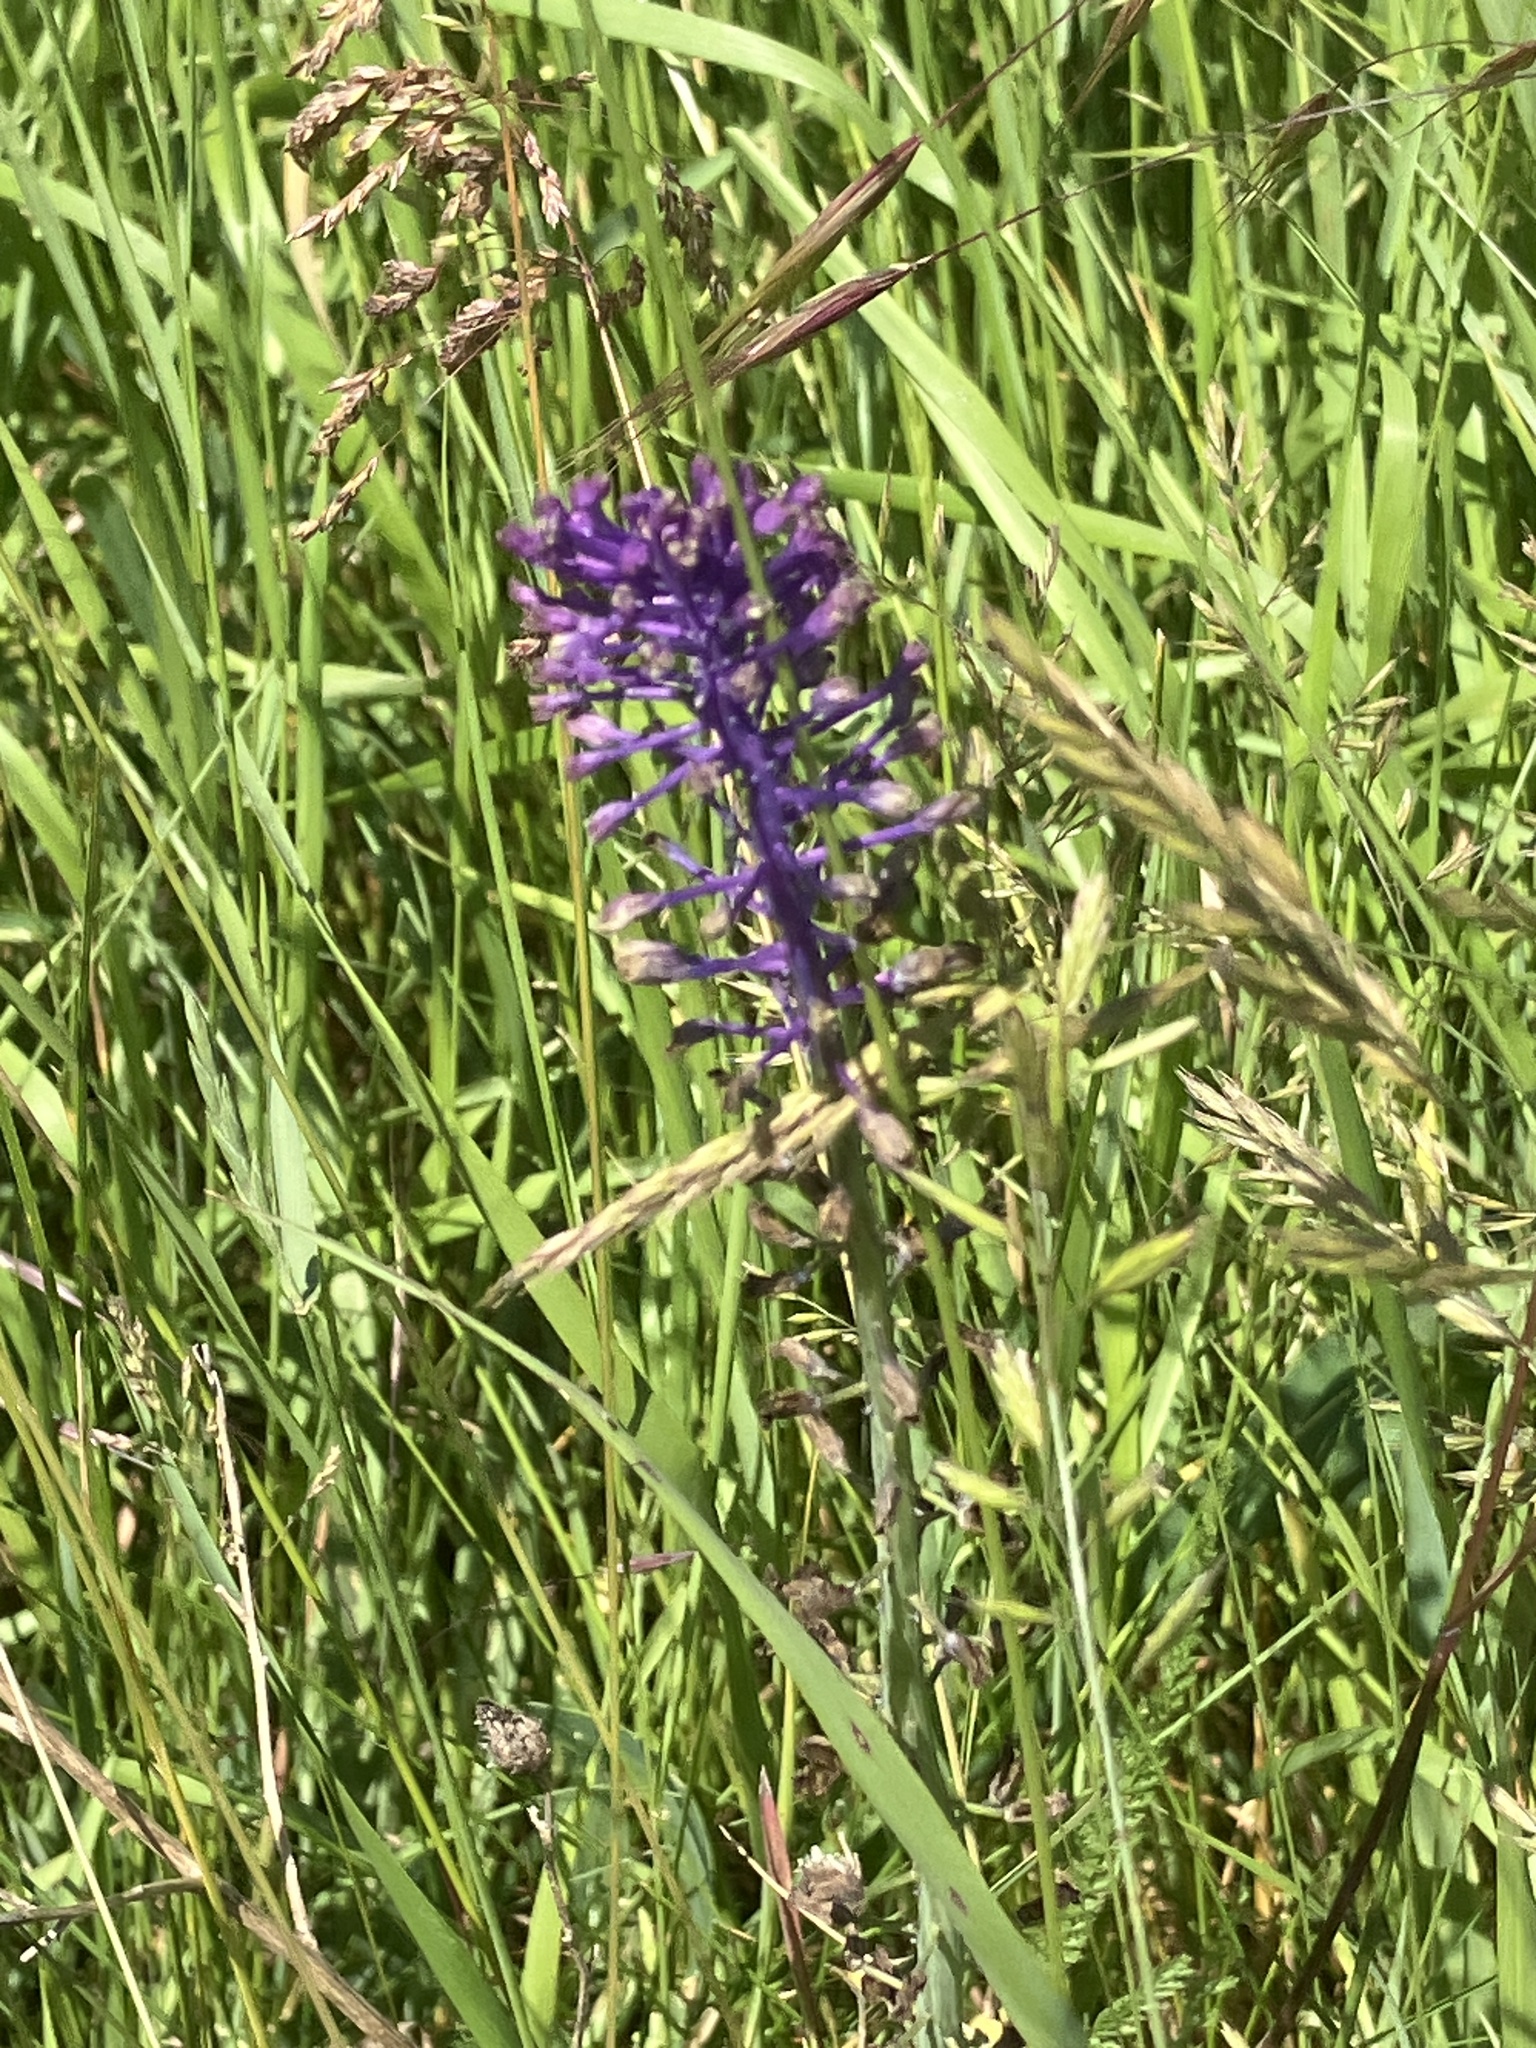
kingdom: Plantae
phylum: Tracheophyta
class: Liliopsida
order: Asparagales
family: Asparagaceae
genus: Muscari
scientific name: Muscari comosum
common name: Tassel hyacinth
